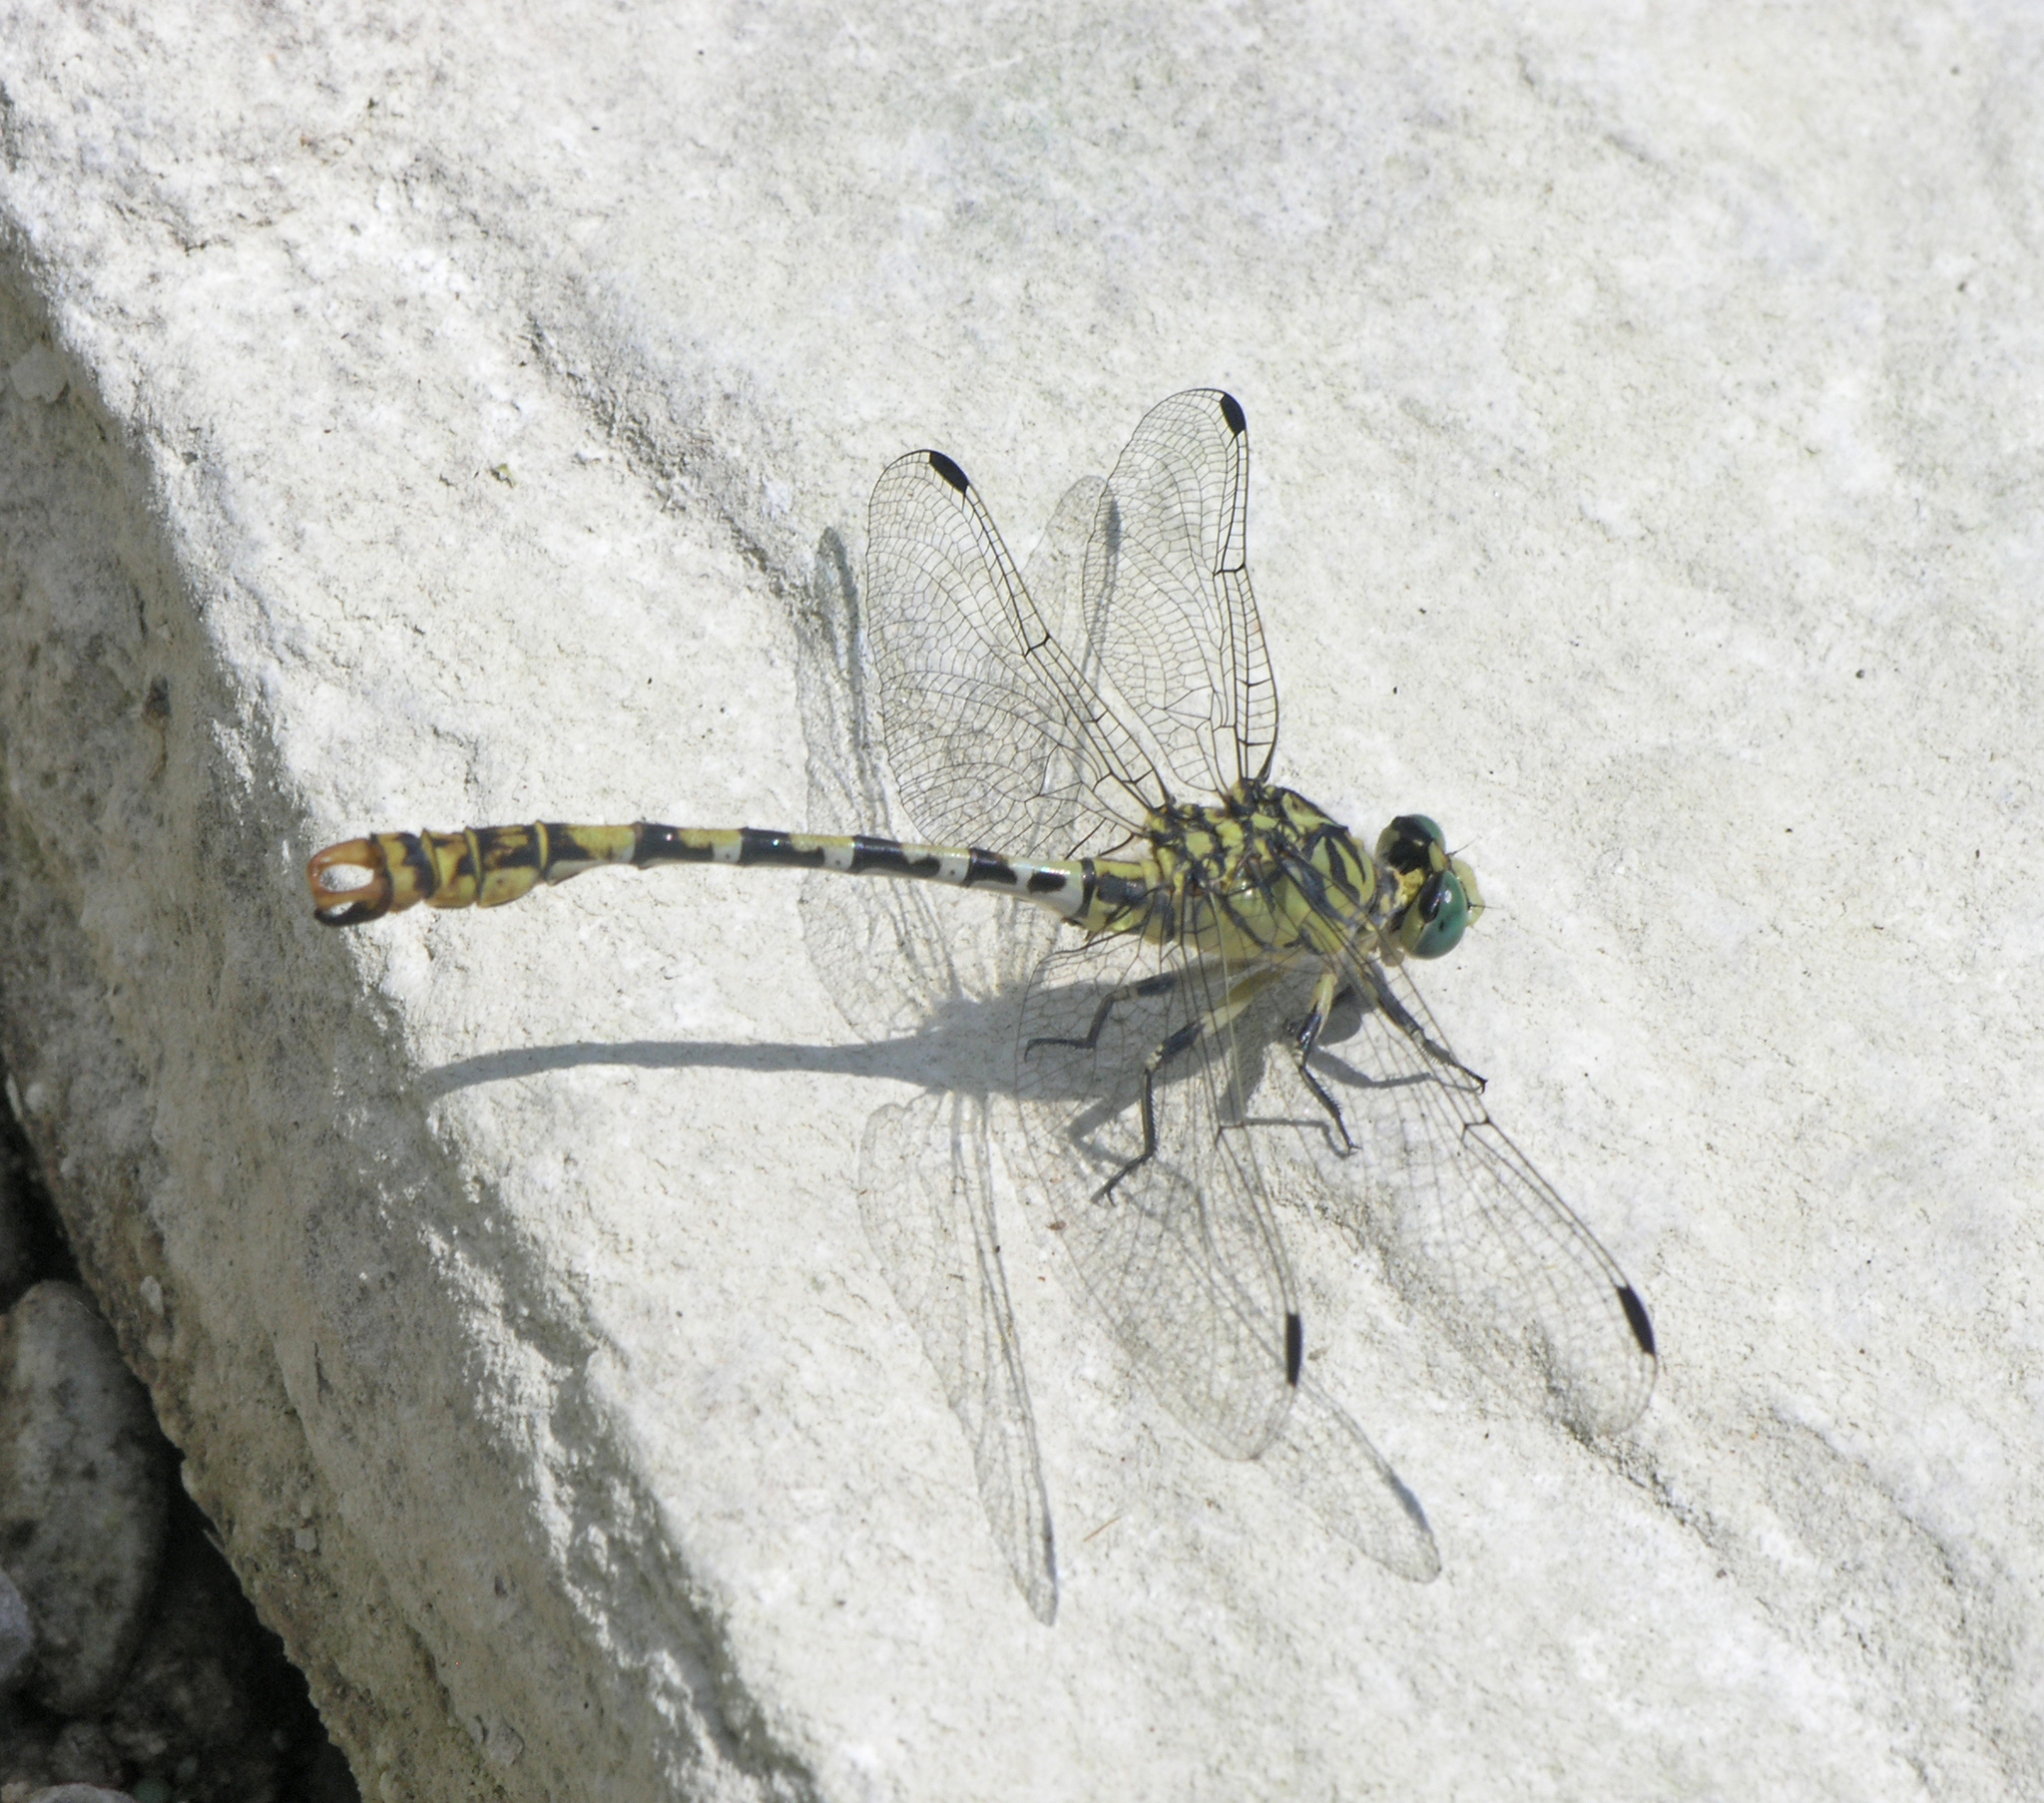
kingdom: Animalia
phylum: Arthropoda
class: Insecta
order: Odonata
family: Gomphidae
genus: Onychogomphus
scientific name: Onychogomphus forcipatus
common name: Small pincertail
